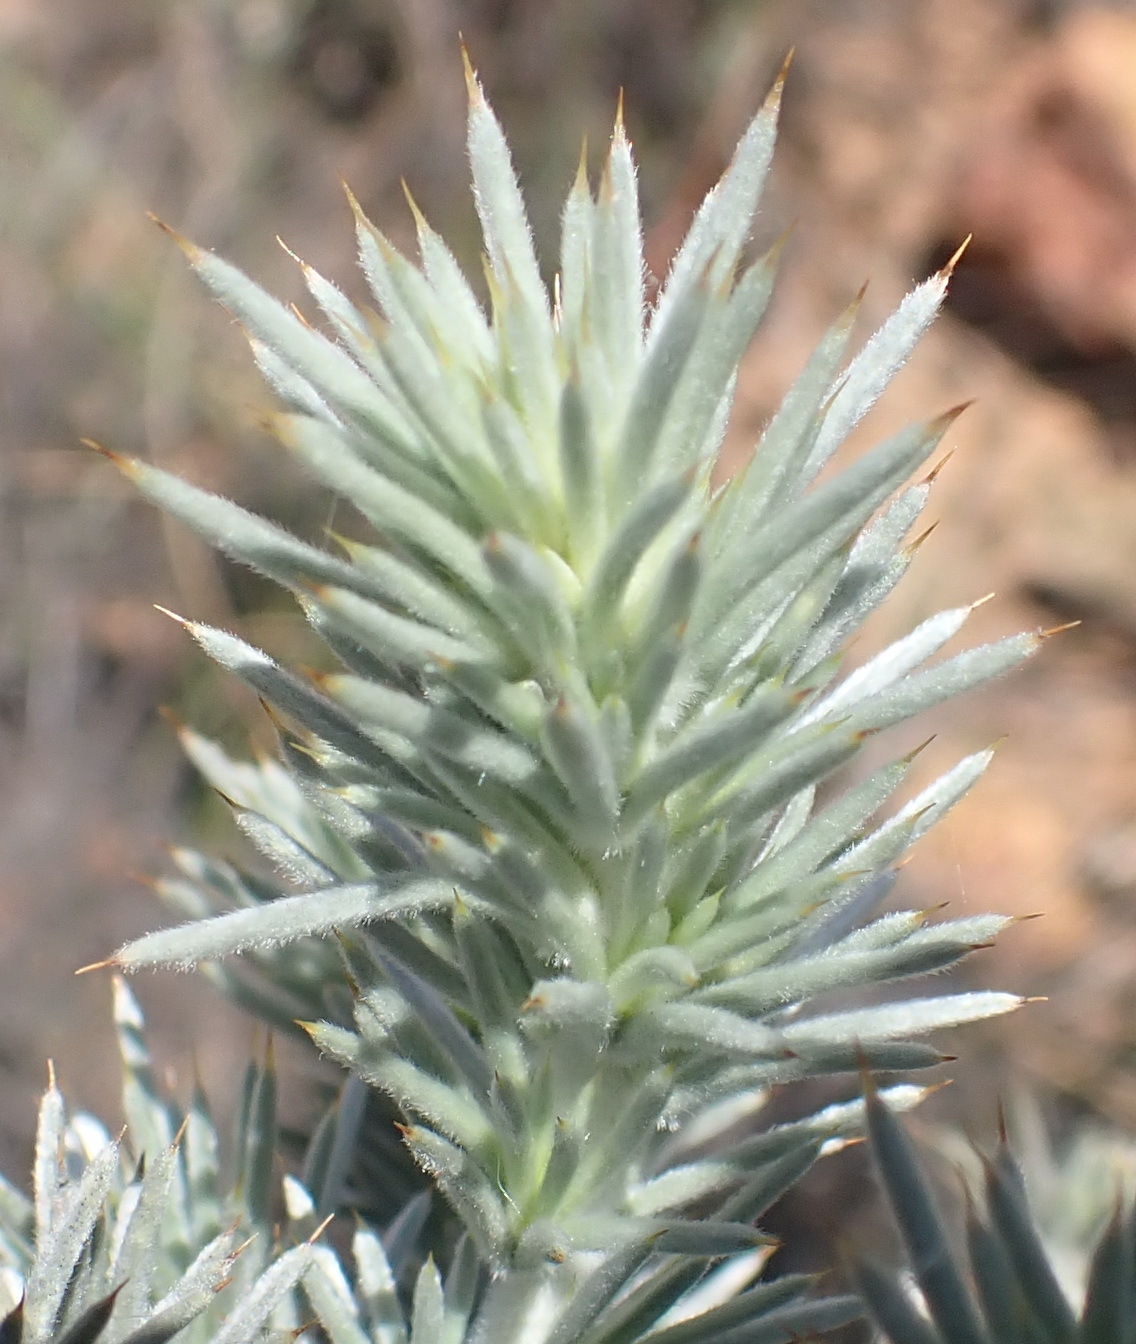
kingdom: Plantae
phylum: Tracheophyta
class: Magnoliopsida
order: Fabales
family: Fabaceae
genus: Aspalathus
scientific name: Aspalathus hystrix
